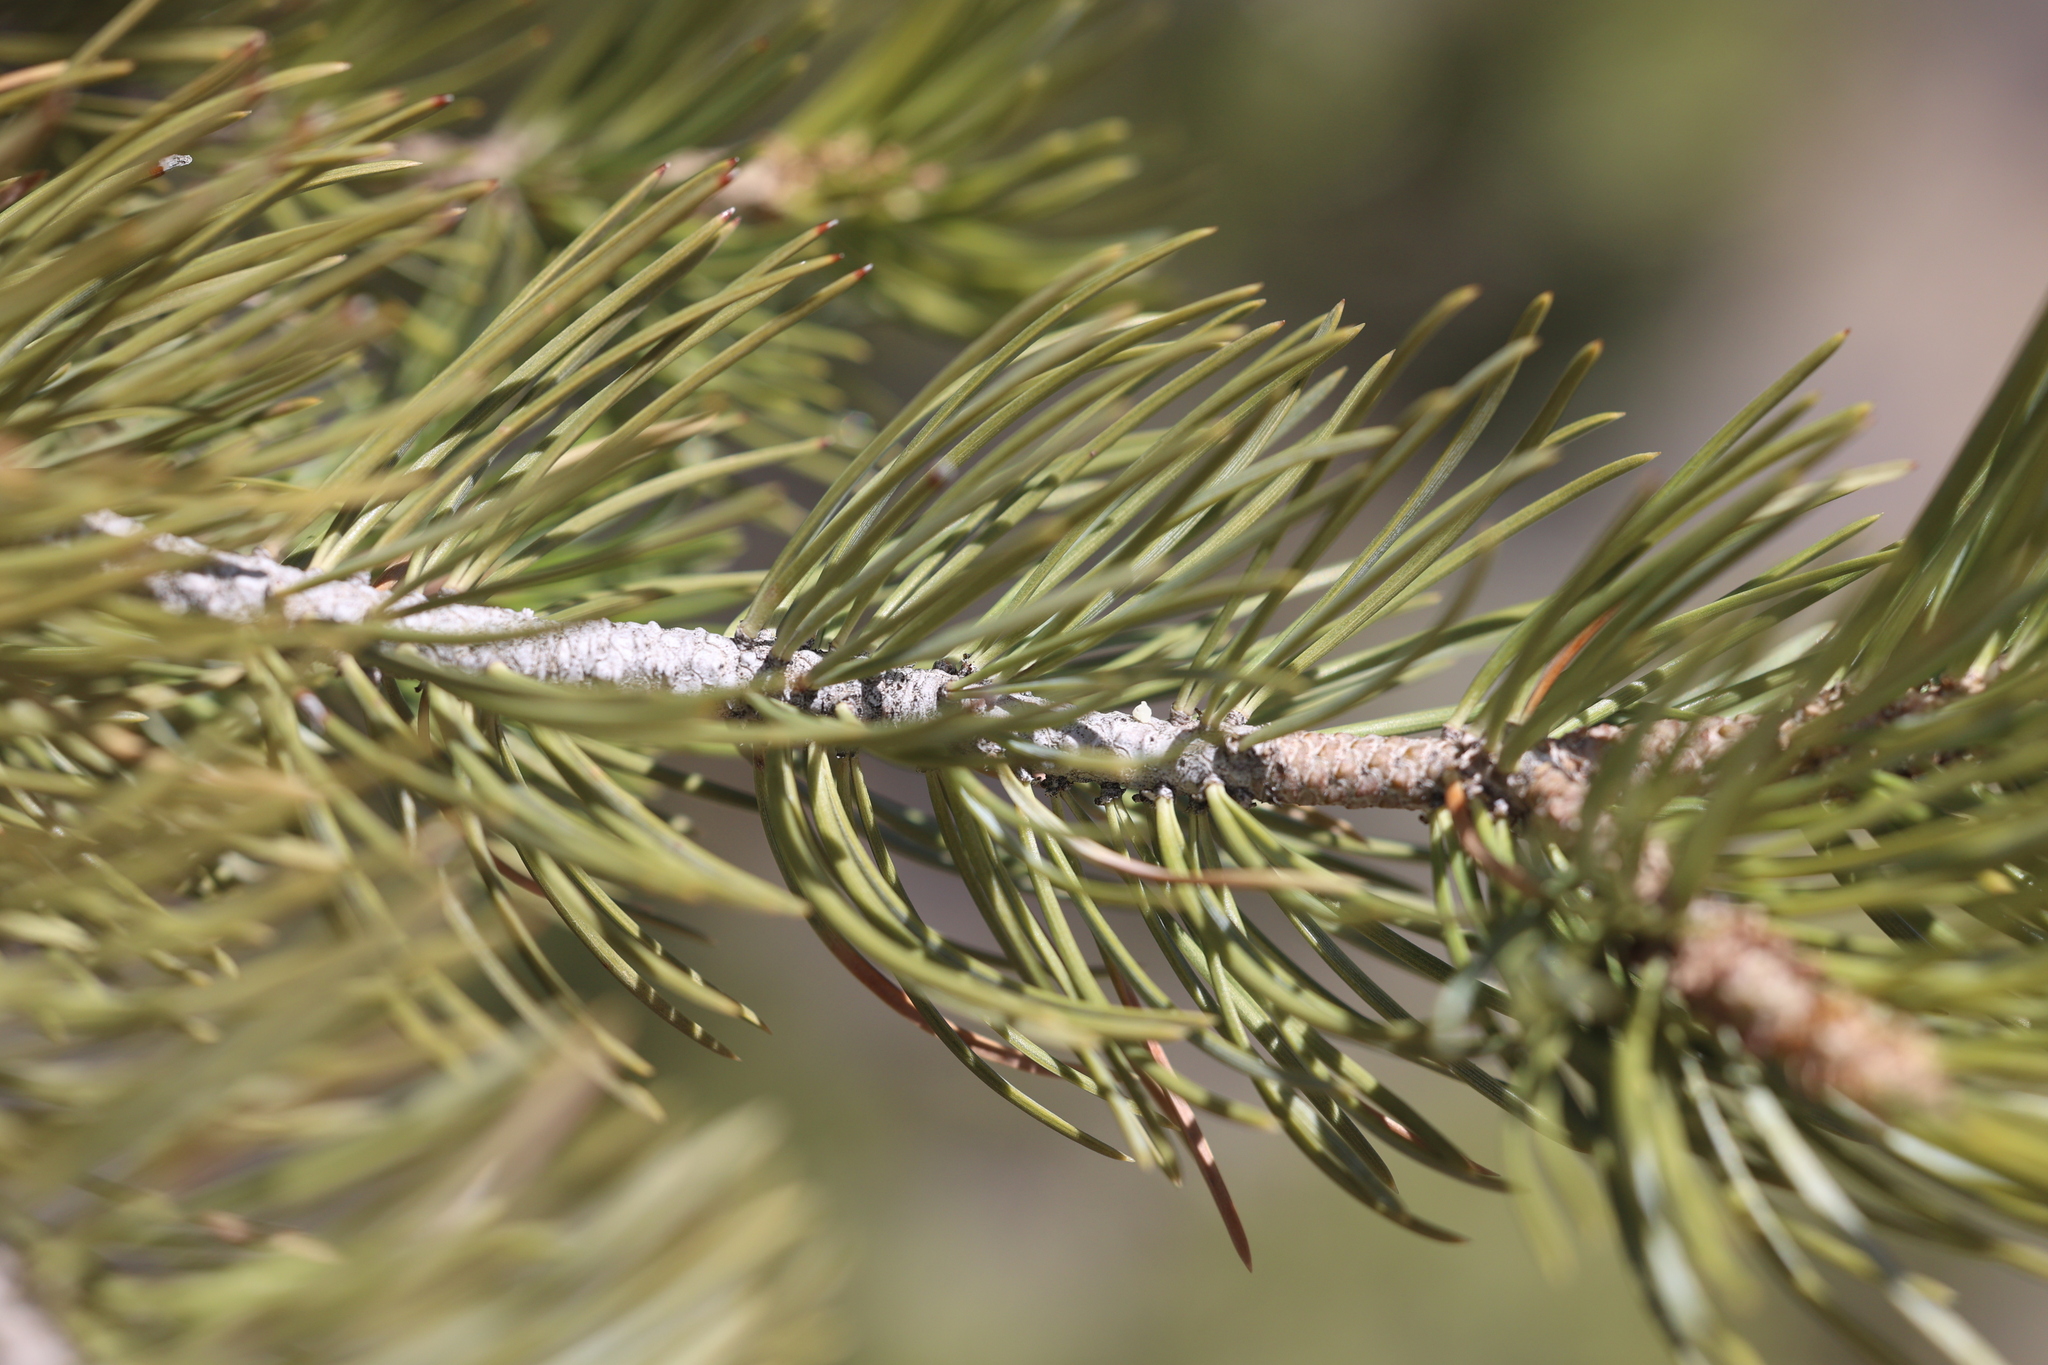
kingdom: Plantae
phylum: Tracheophyta
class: Pinopsida
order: Pinales
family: Pinaceae
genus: Pinus
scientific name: Pinus edulis
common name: Colorado pinyon
